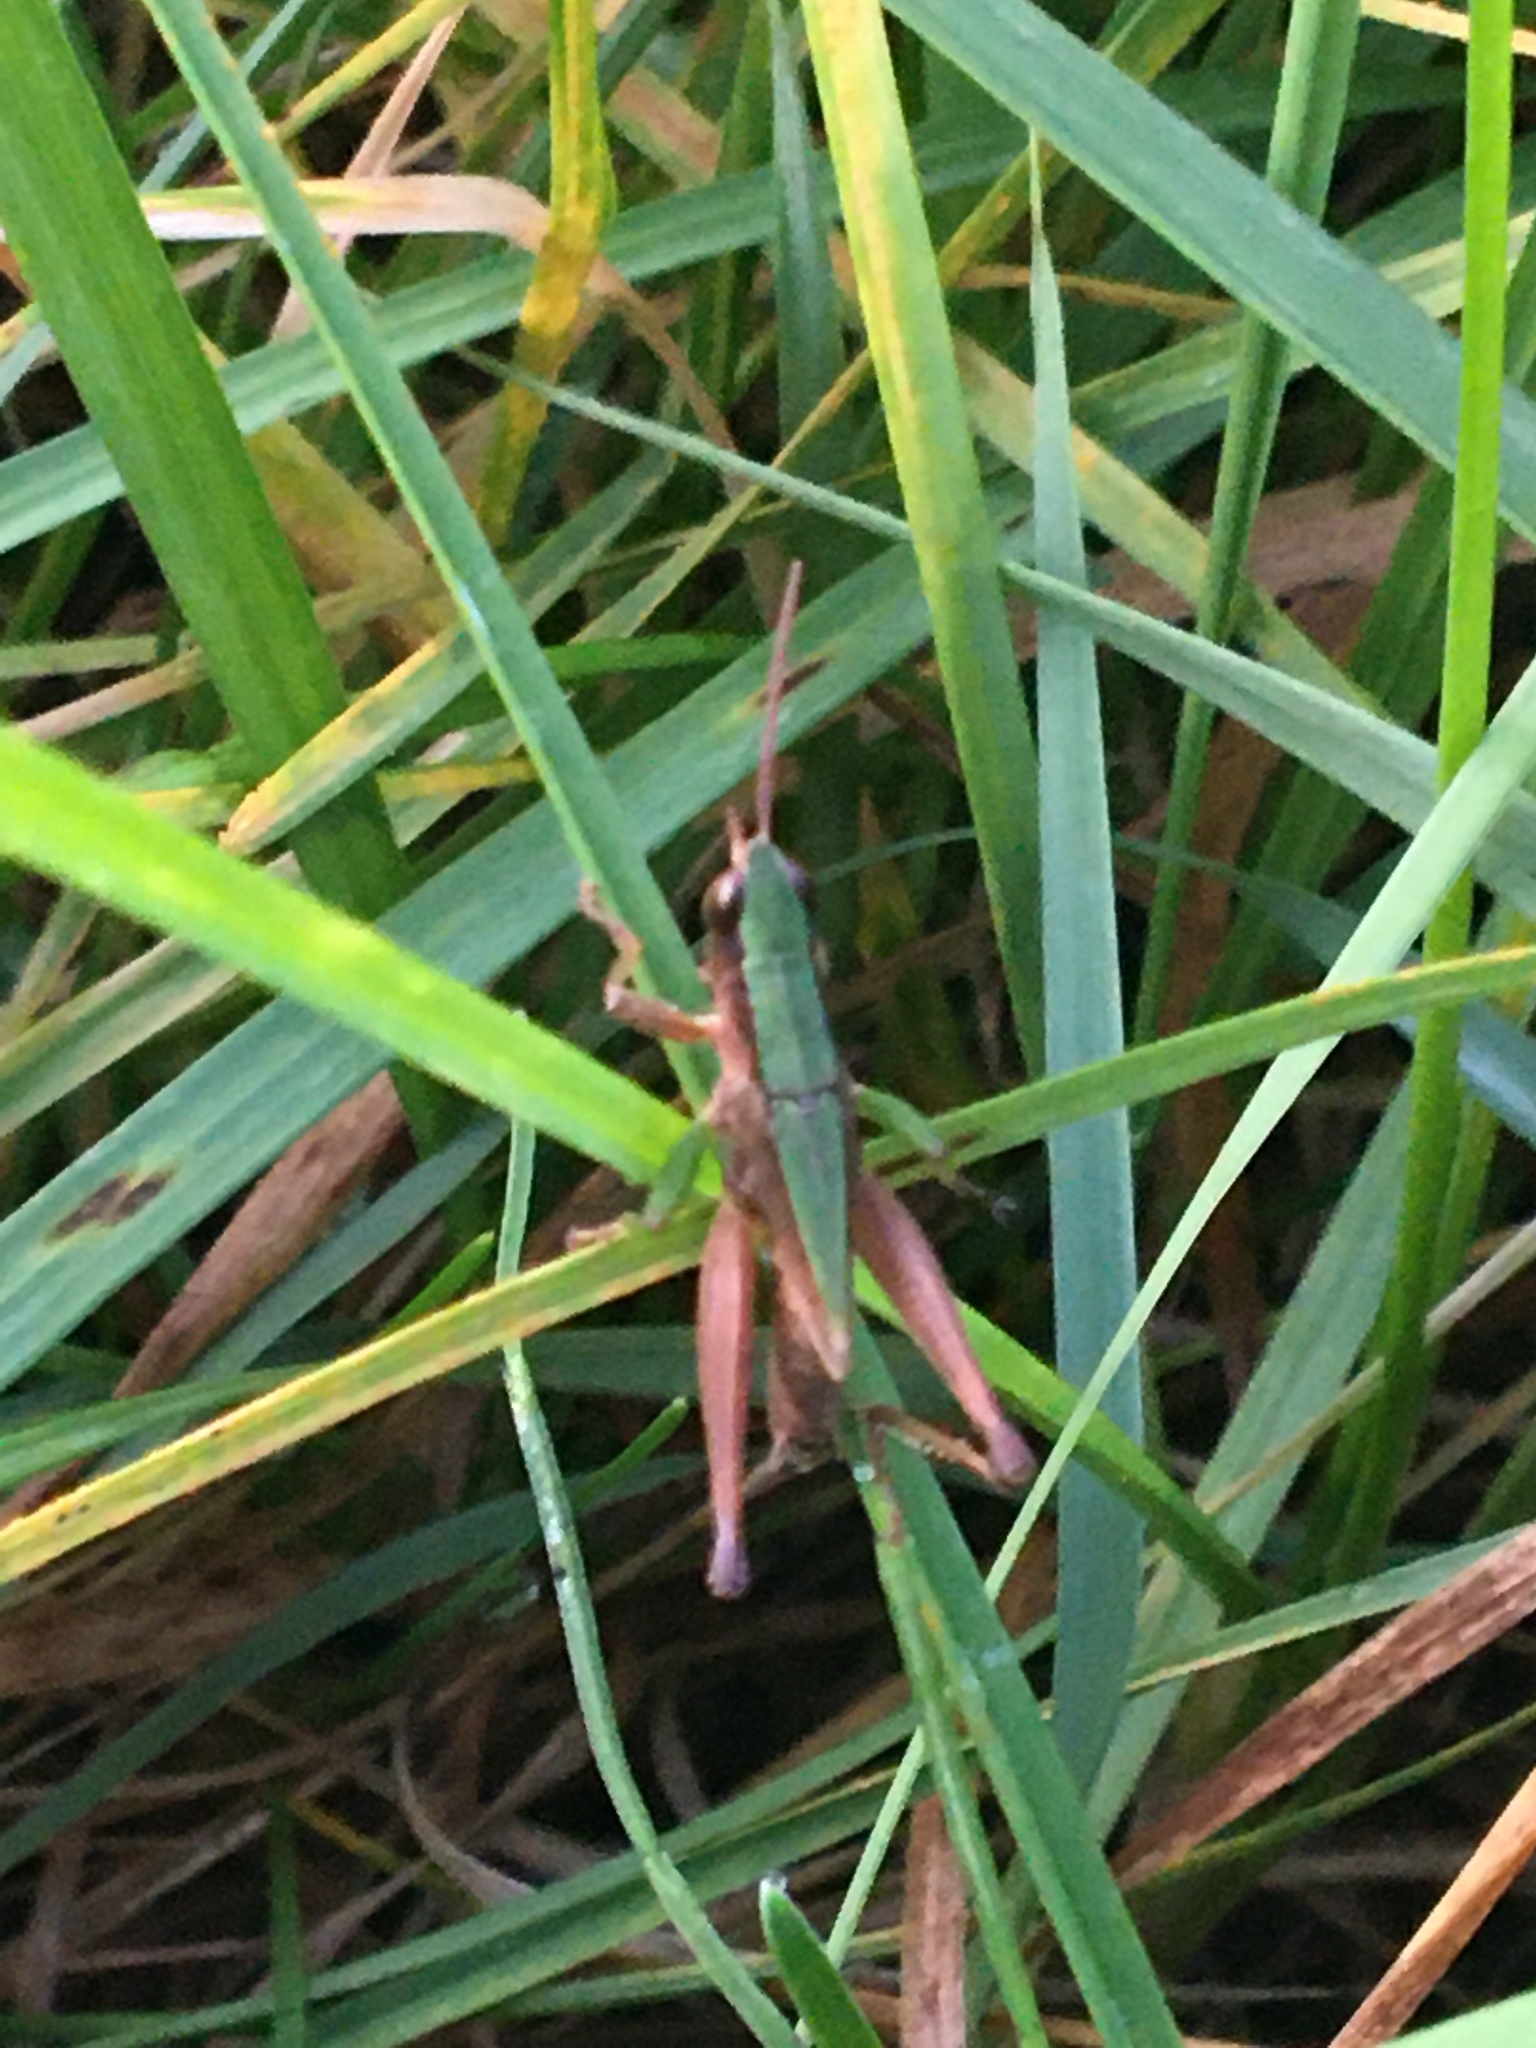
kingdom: Animalia
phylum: Arthropoda
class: Insecta
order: Orthoptera
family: Acrididae
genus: Dichromorpha
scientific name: Dichromorpha viridis
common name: Short-winged green grasshopper
